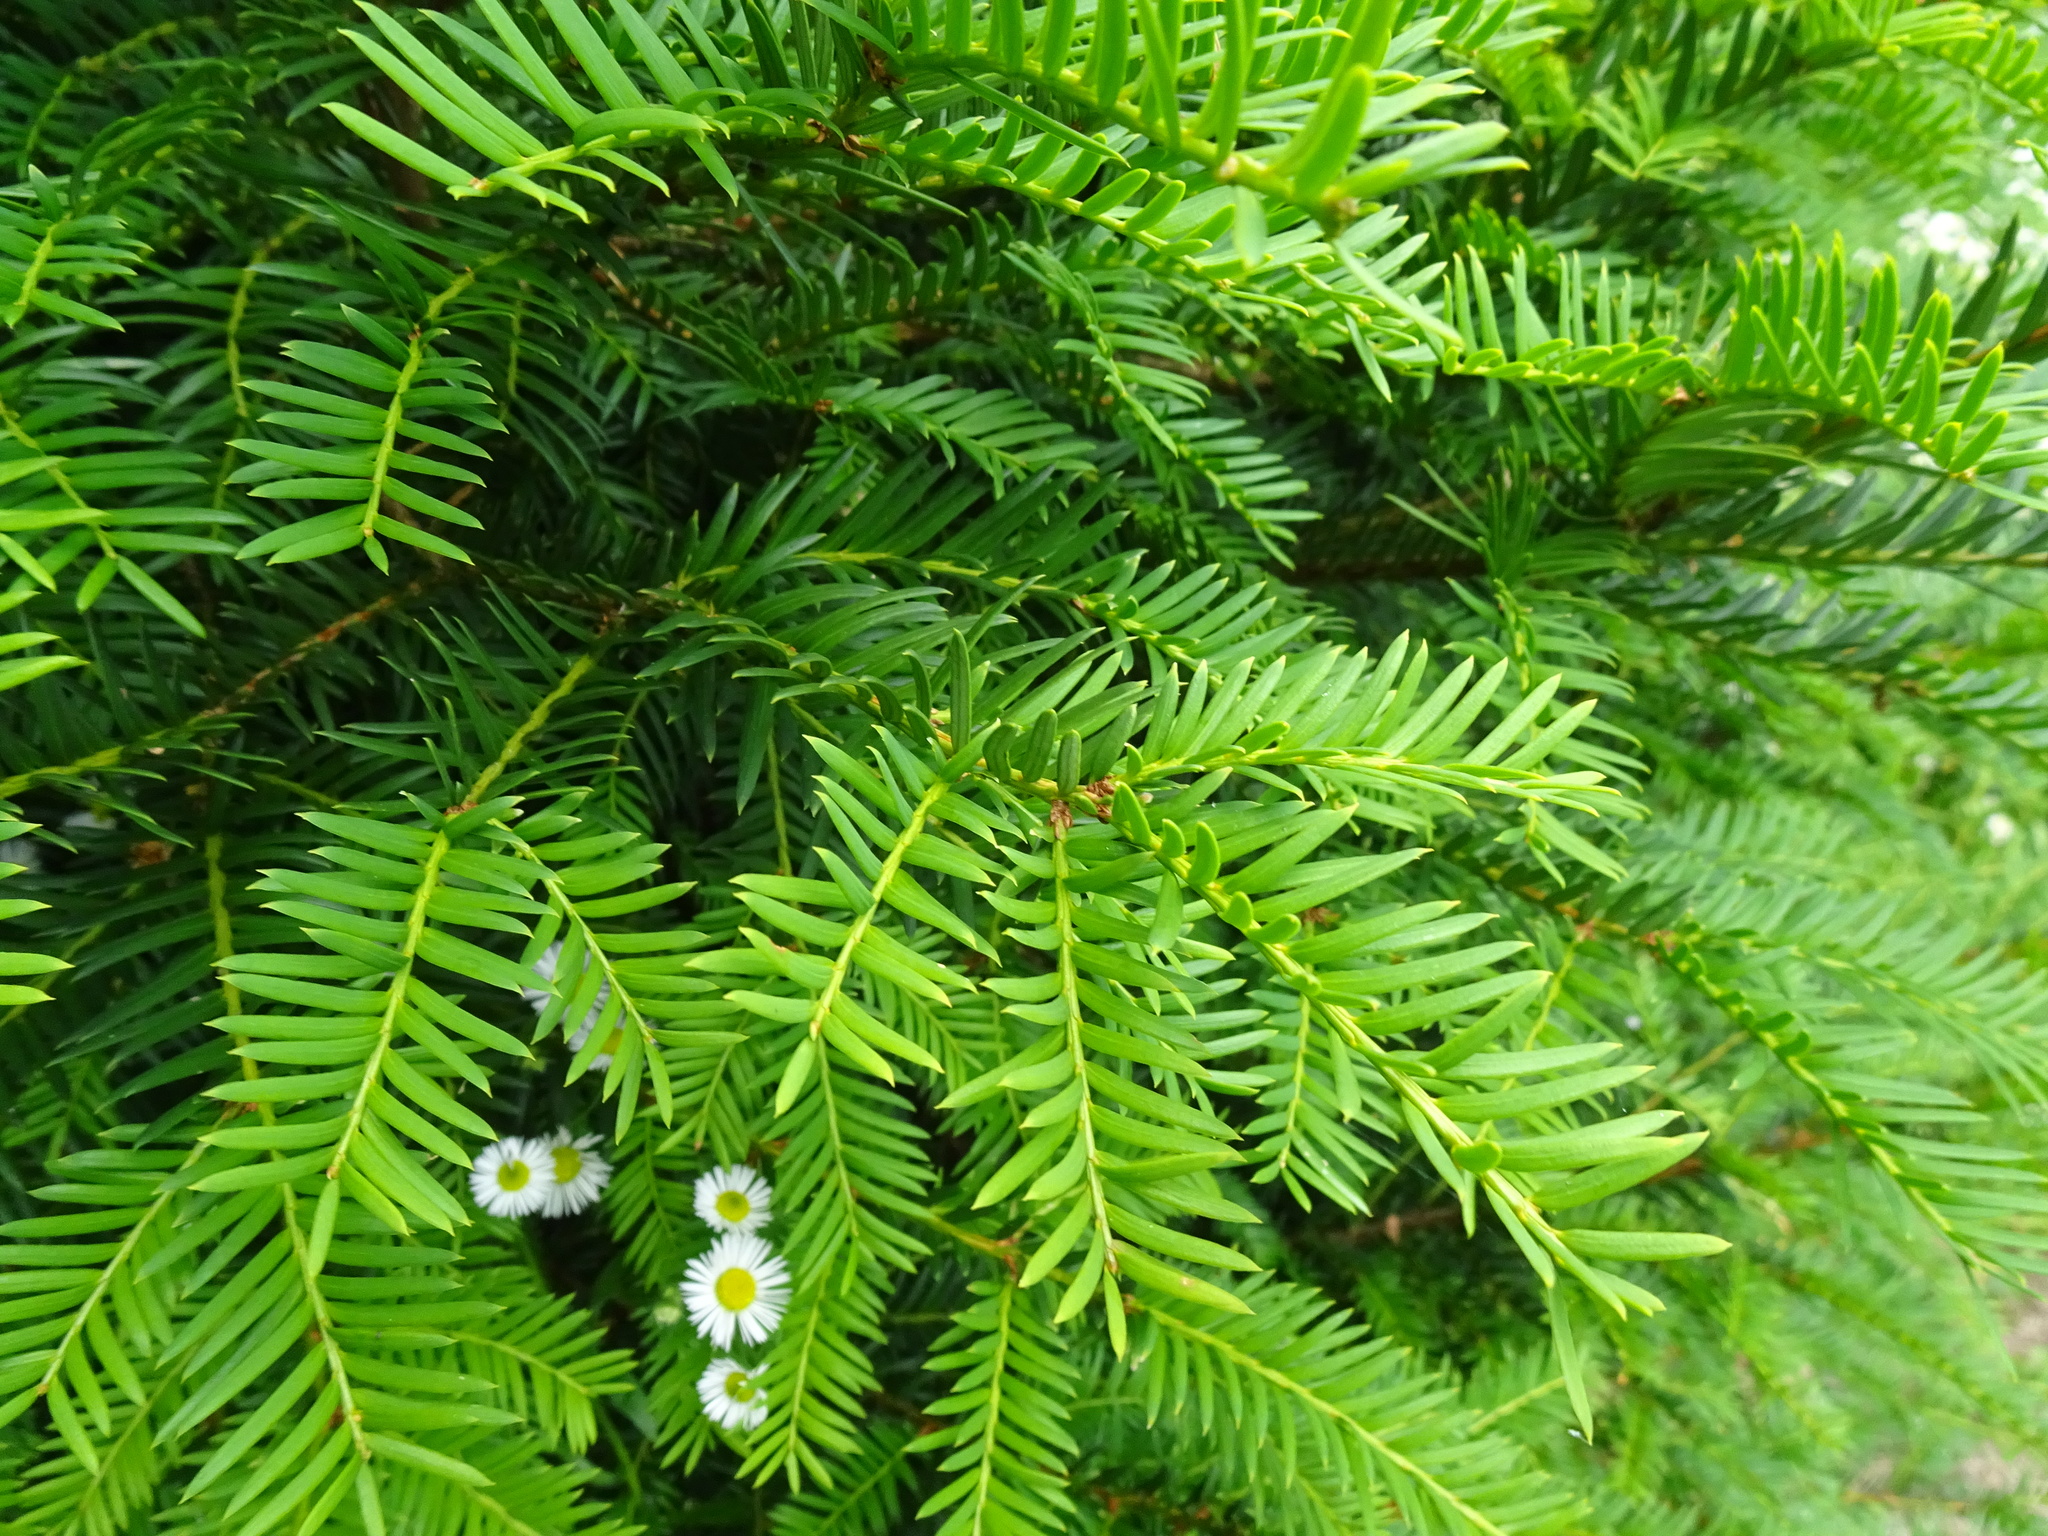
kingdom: Plantae
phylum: Tracheophyta
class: Pinopsida
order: Pinales
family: Taxaceae
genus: Taxus
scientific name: Taxus baccata
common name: Yew
